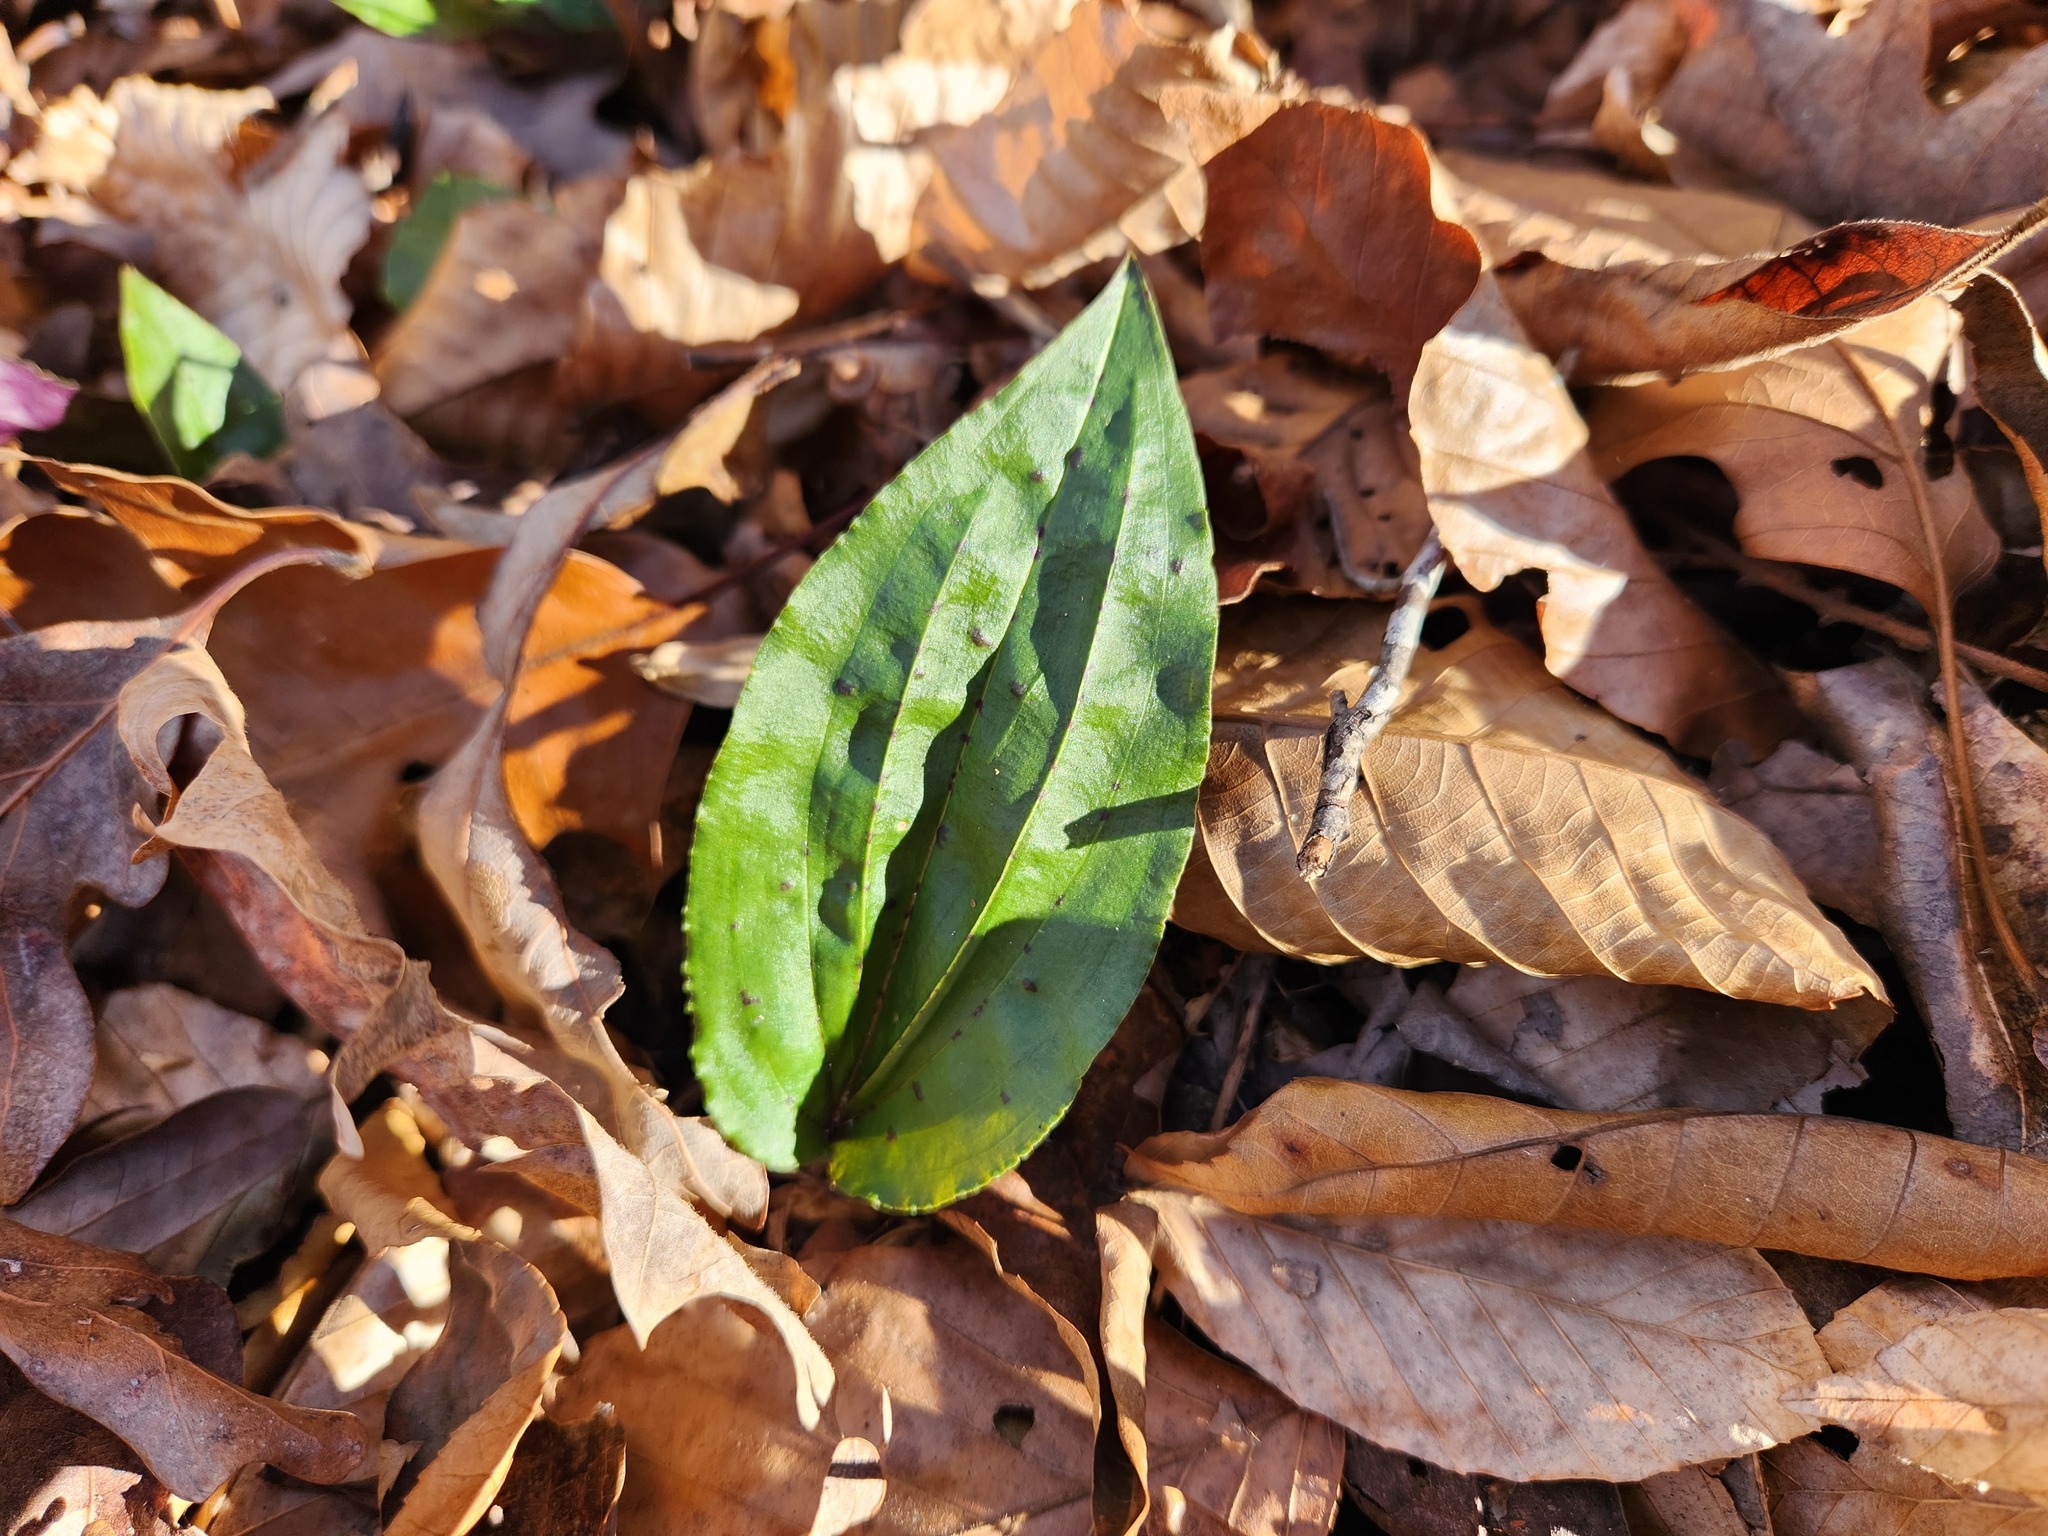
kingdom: Plantae
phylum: Tracheophyta
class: Liliopsida
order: Asparagales
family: Orchidaceae
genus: Tipularia
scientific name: Tipularia discolor
